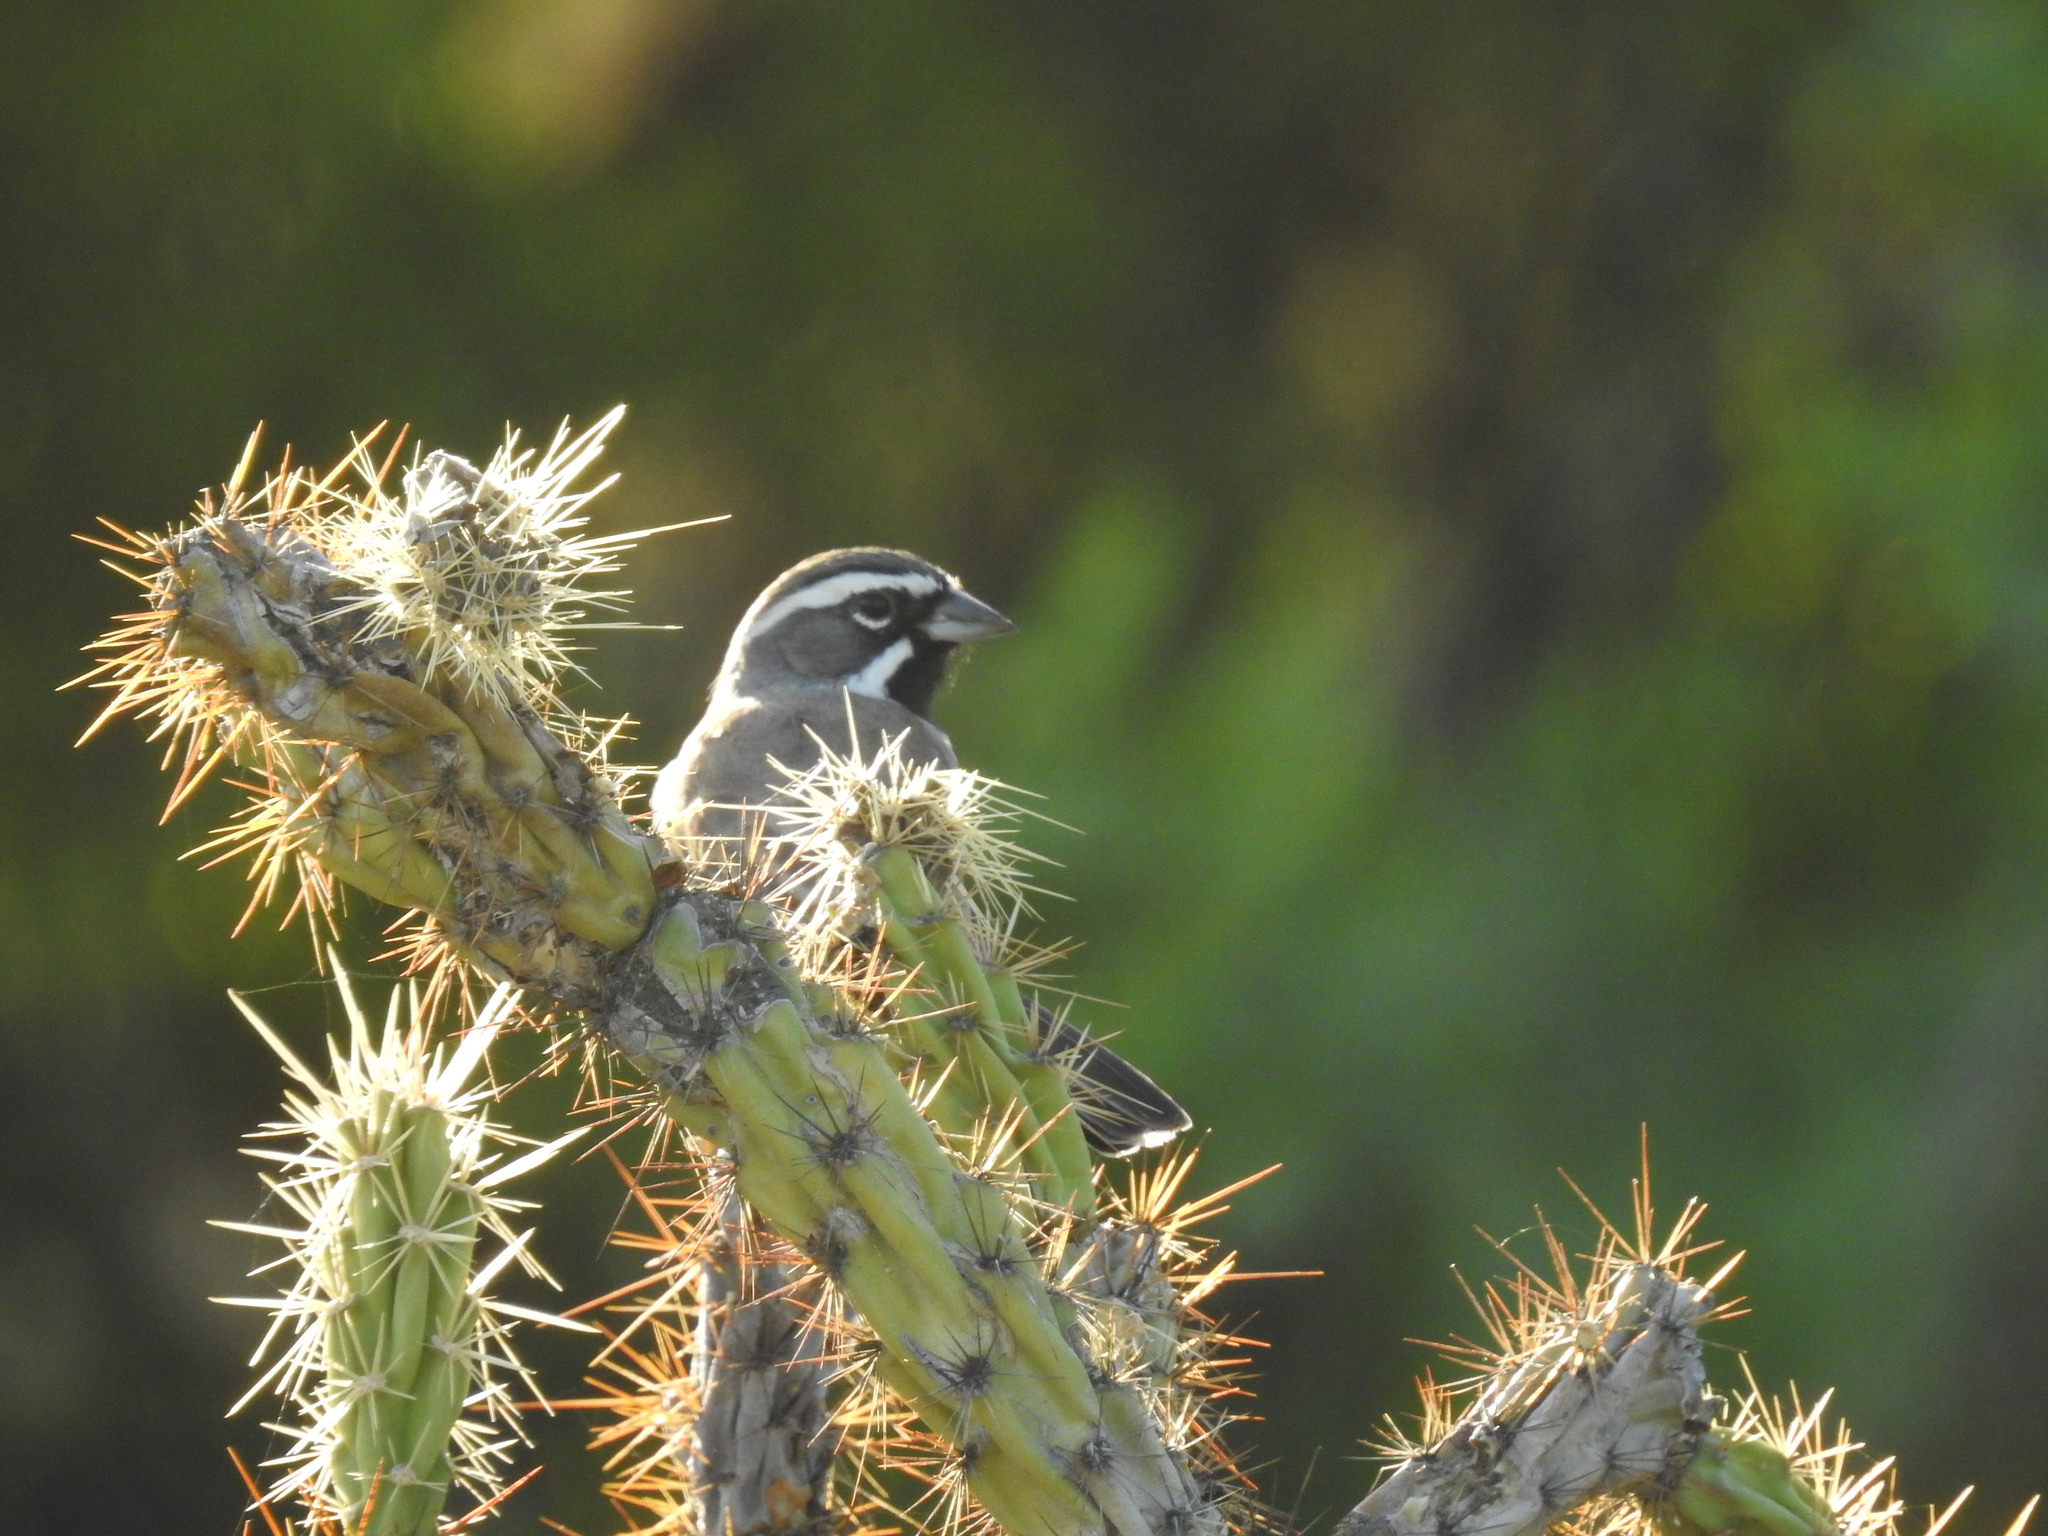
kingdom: Animalia
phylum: Chordata
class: Aves
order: Passeriformes
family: Passerellidae
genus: Amphispiza
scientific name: Amphispiza bilineata
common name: Black-throated sparrow
